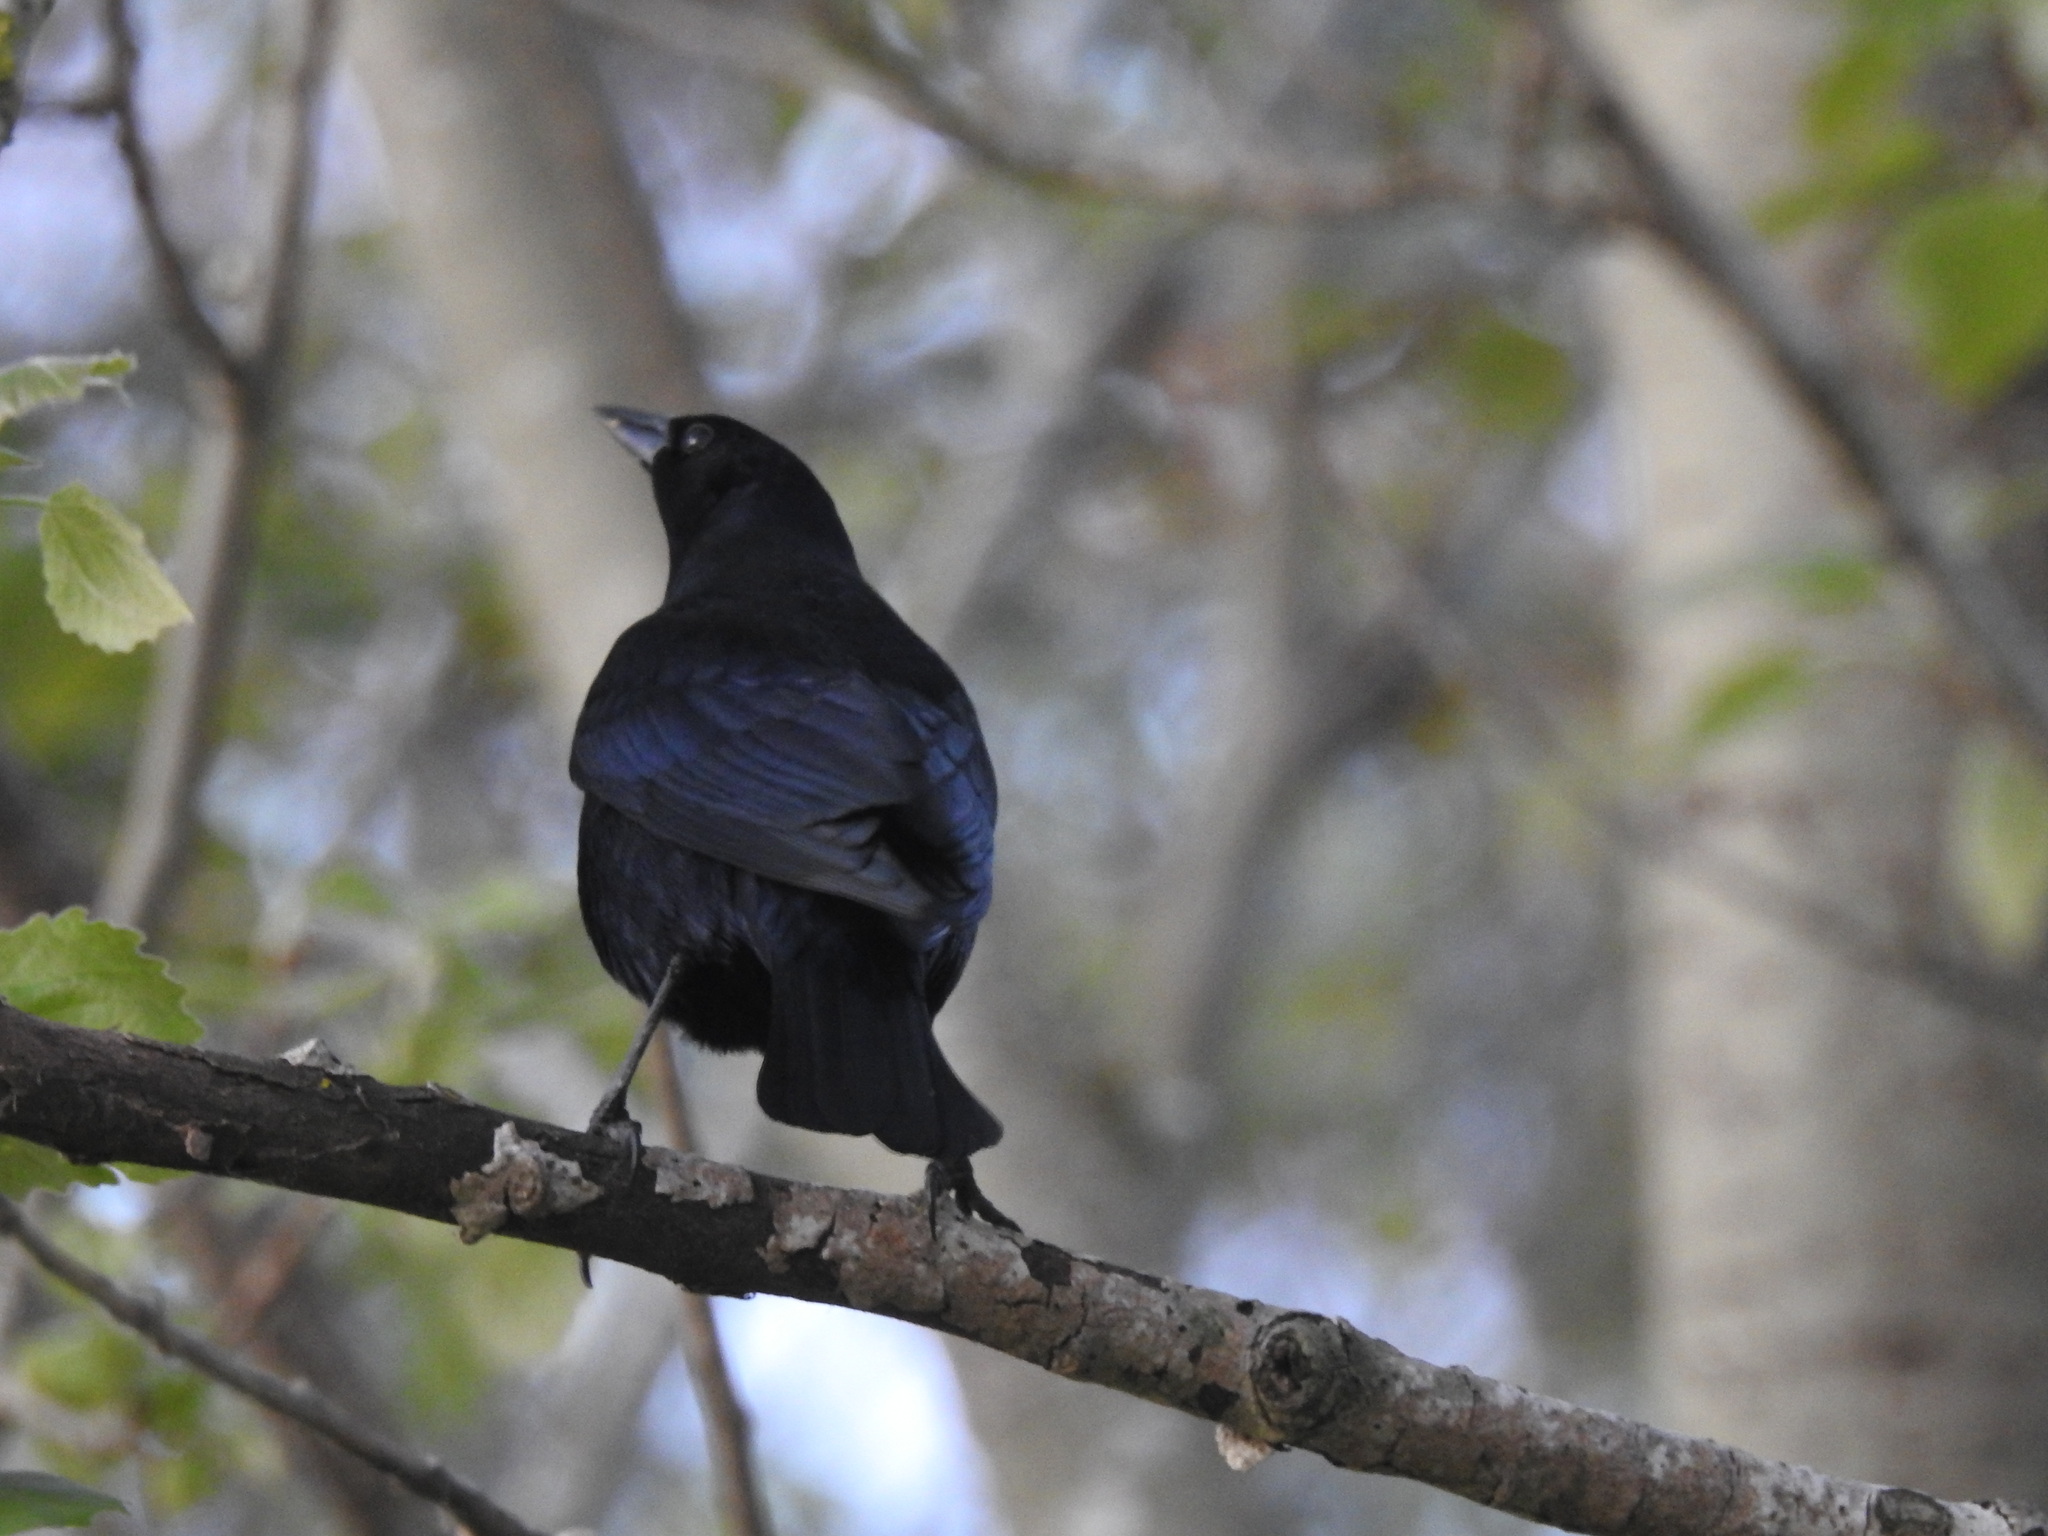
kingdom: Animalia
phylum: Chordata
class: Aves
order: Passeriformes
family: Icteridae
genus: Molothrus
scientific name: Molothrus bonariensis
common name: Shiny cowbird
